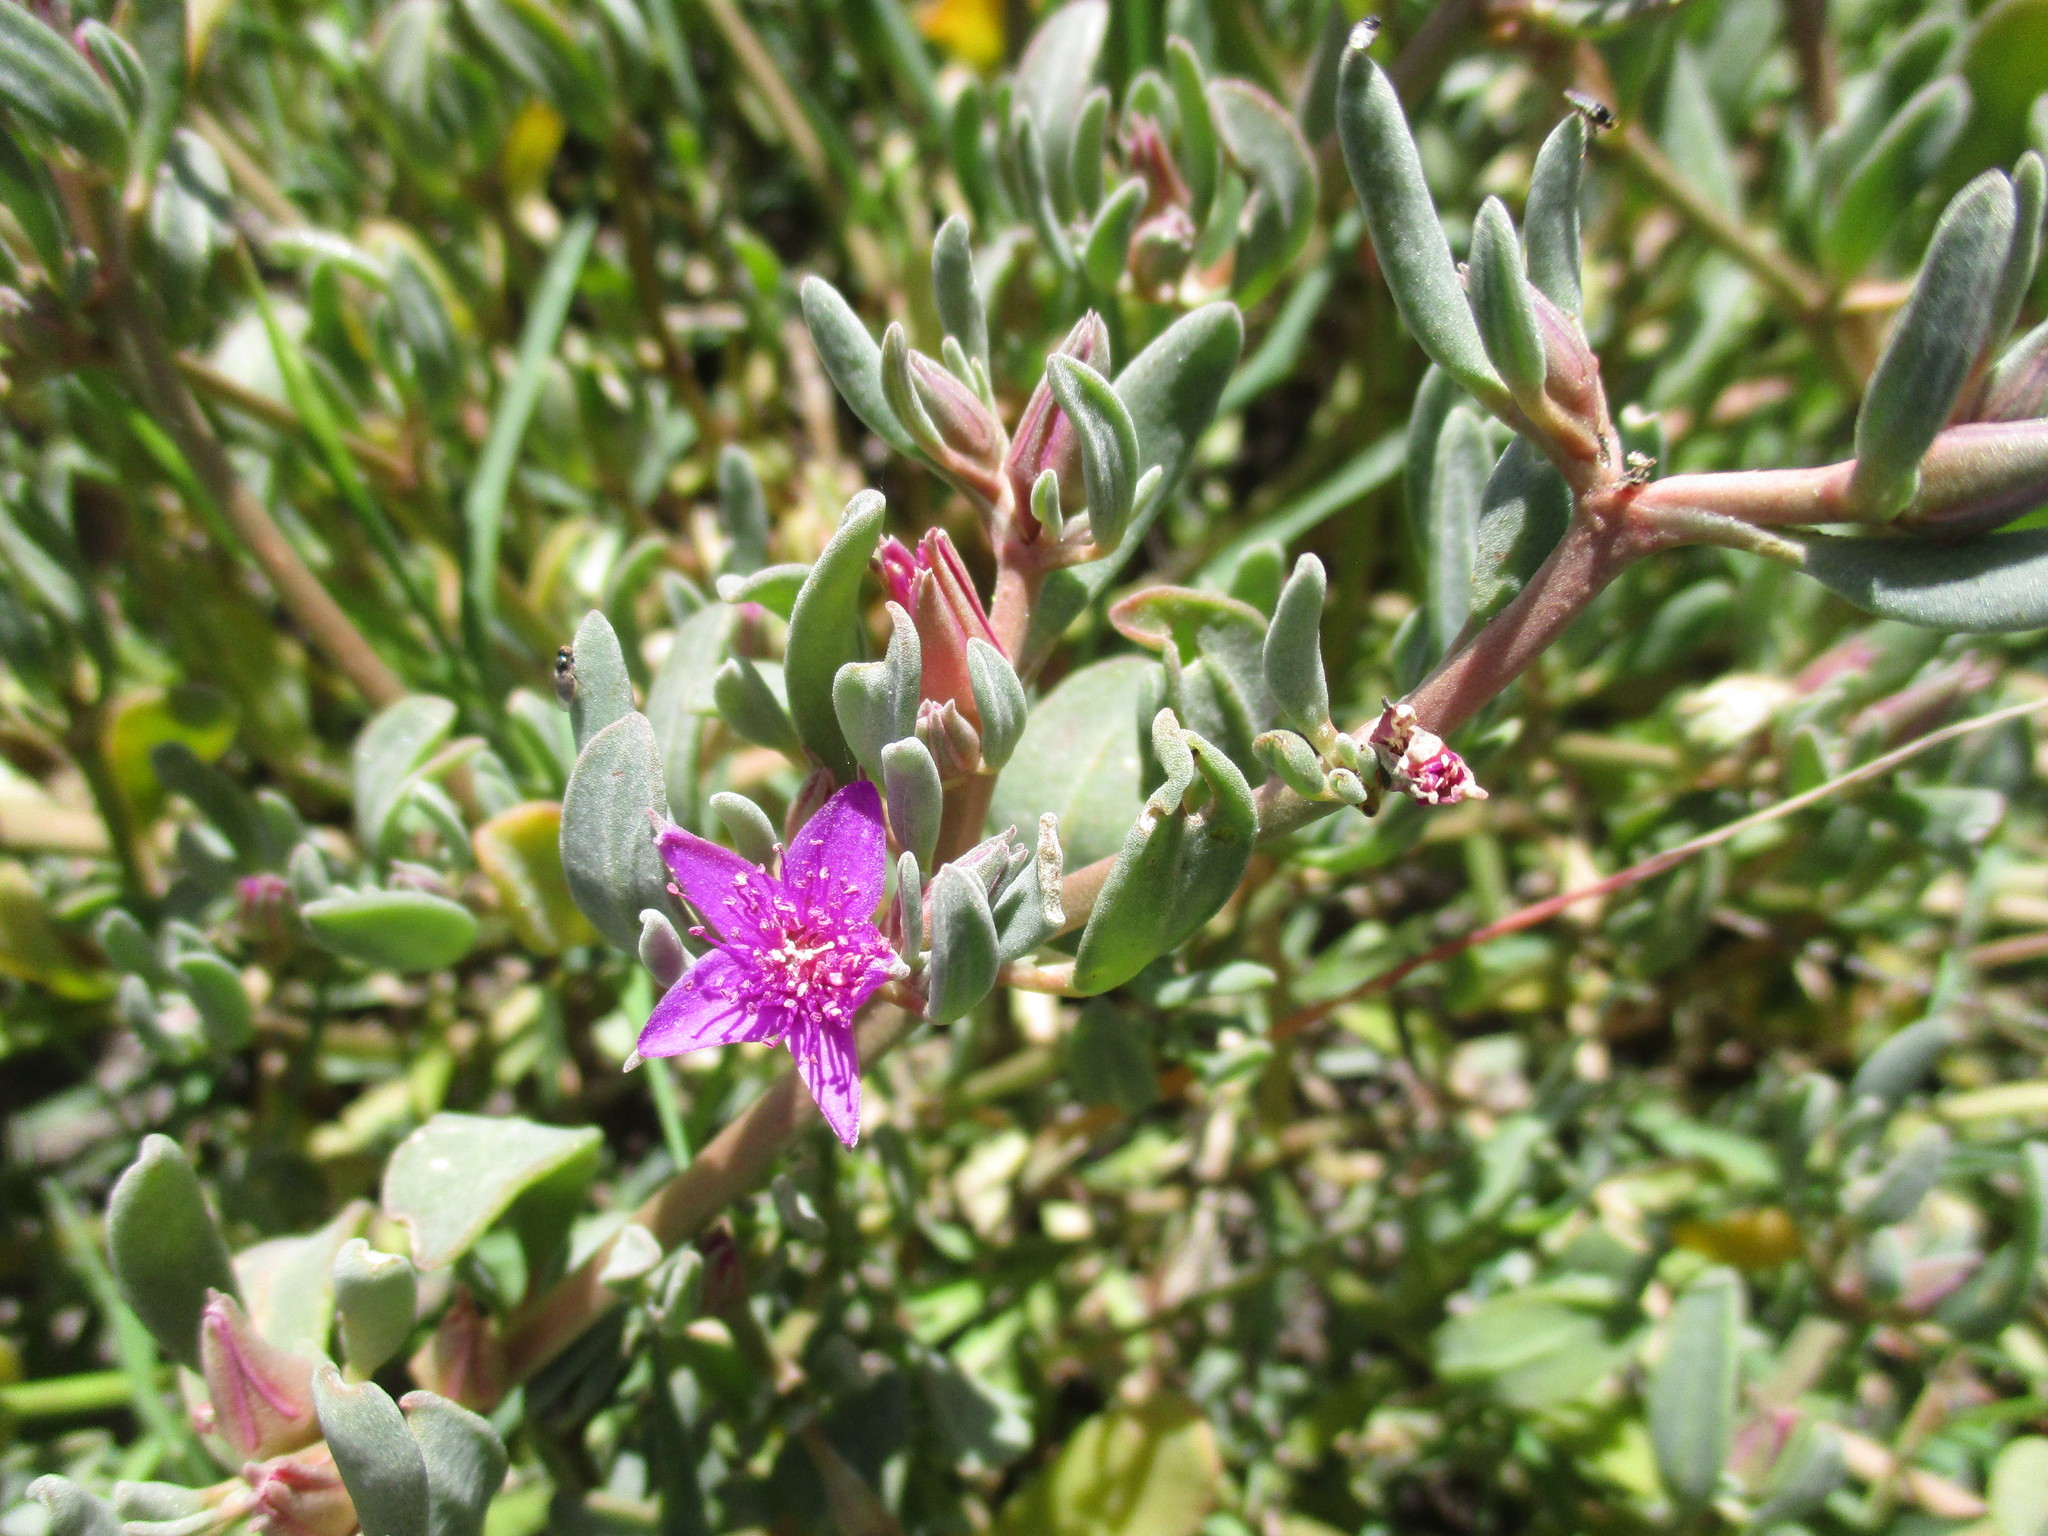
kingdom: Plantae
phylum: Tracheophyta
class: Magnoliopsida
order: Caryophyllales
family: Aizoaceae
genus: Sesuvium
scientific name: Sesuvium revolutifolium
